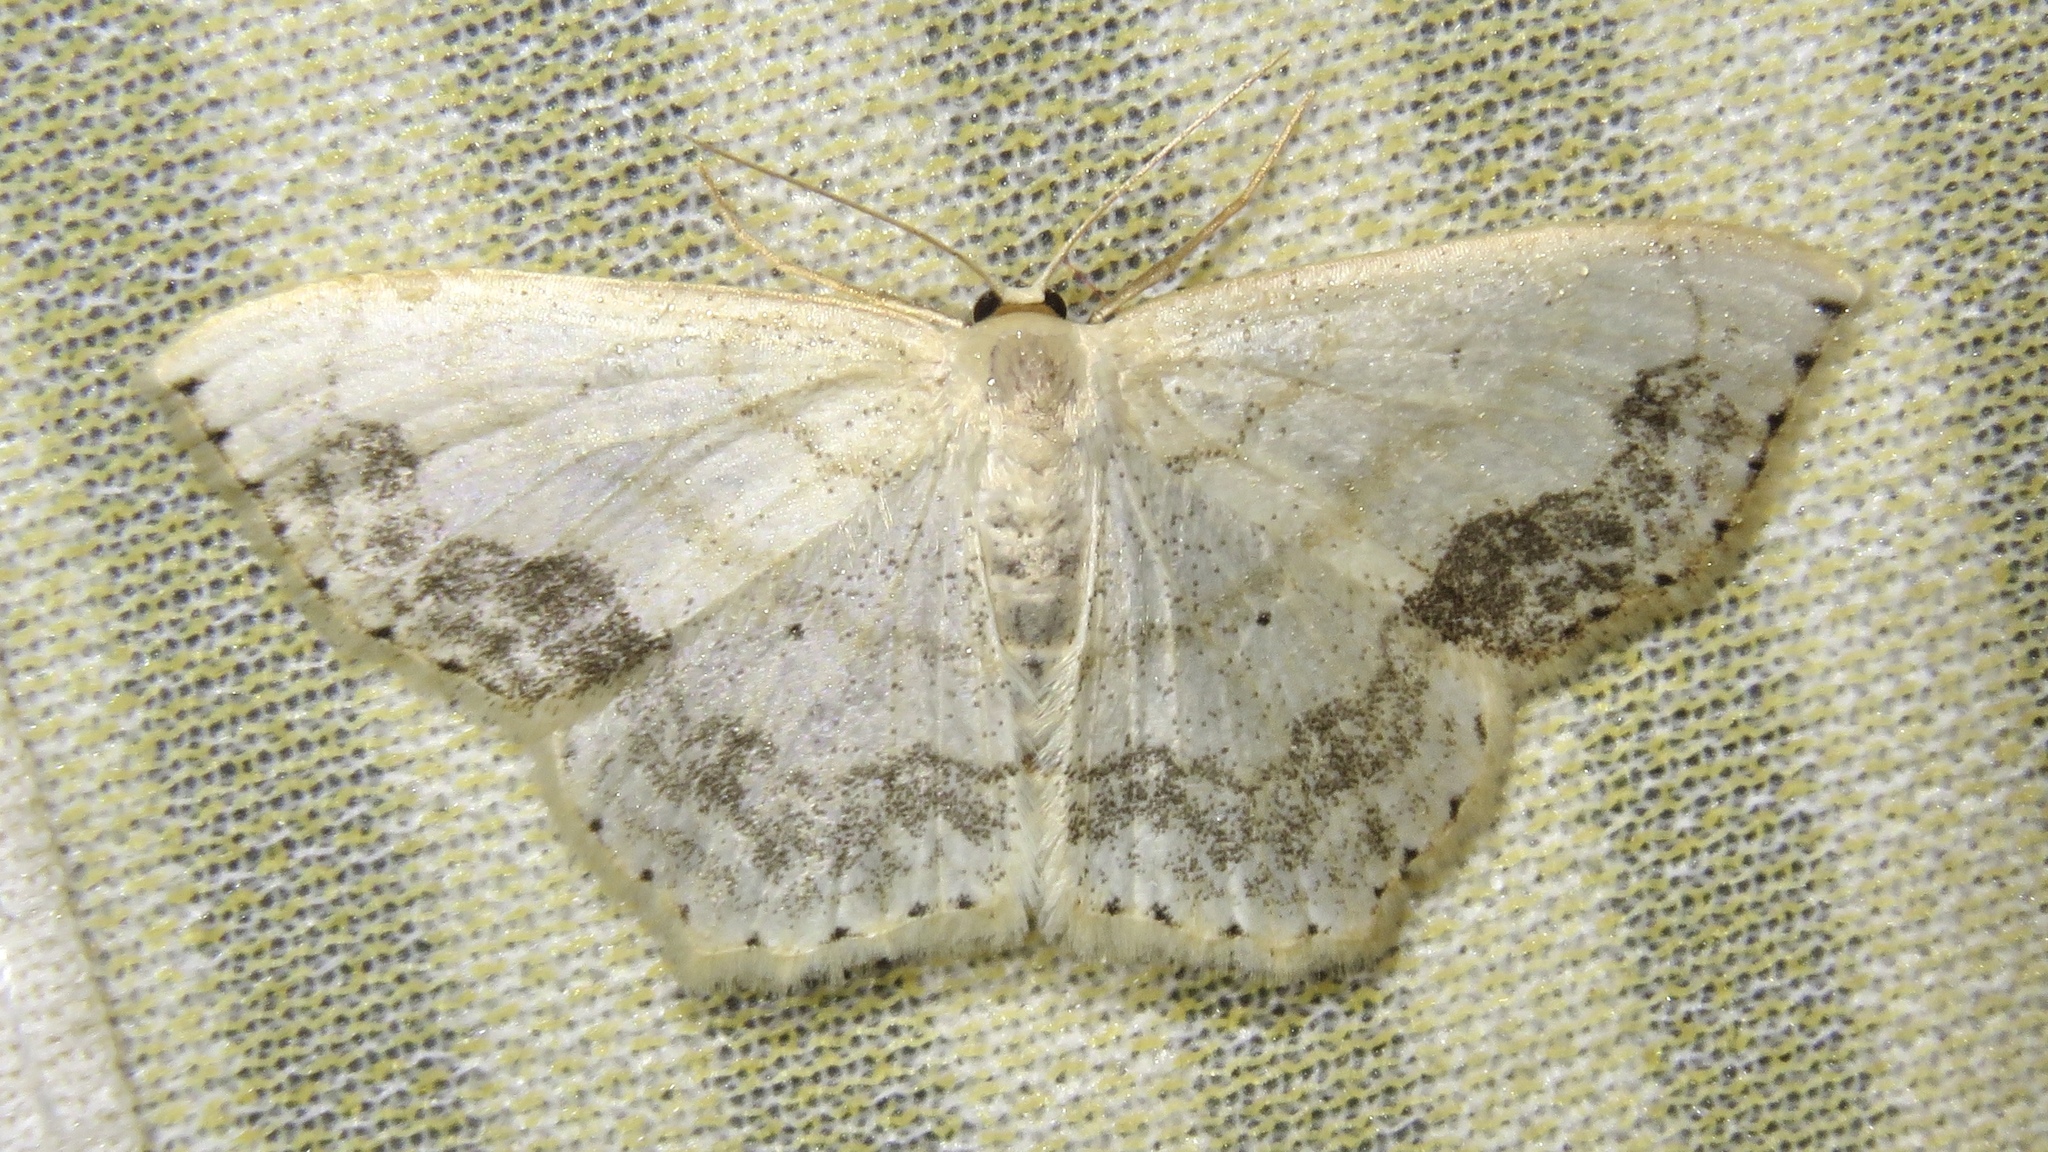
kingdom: Animalia
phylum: Arthropoda
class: Insecta
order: Lepidoptera
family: Geometridae
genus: Scopula
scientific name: Scopula limboundata
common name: Large lace border
